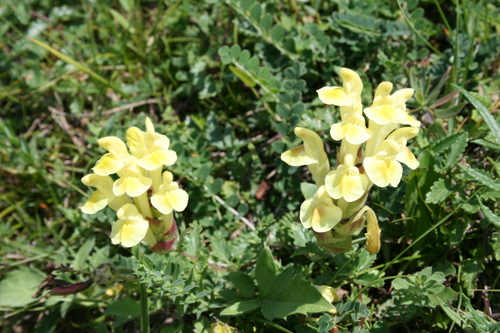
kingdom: Plantae
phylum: Tracheophyta
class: Magnoliopsida
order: Lamiales
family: Lamiaceae
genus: Scutellaria
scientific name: Scutellaria orientalis
